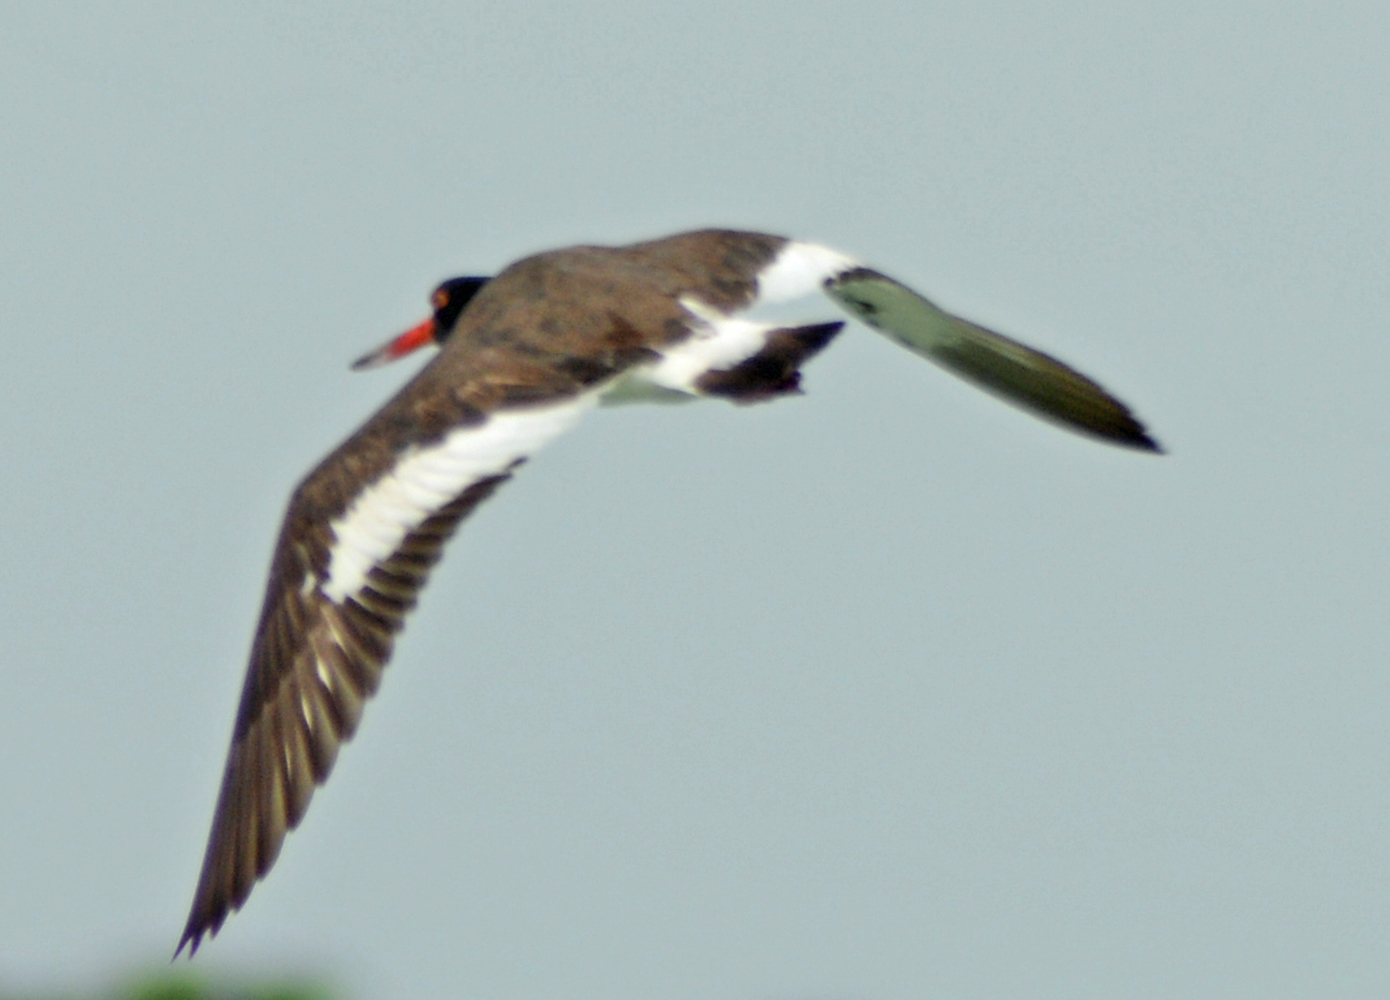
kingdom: Animalia
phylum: Chordata
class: Aves
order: Charadriiformes
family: Haematopodidae
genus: Haematopus
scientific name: Haematopus palliatus
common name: American oystercatcher
